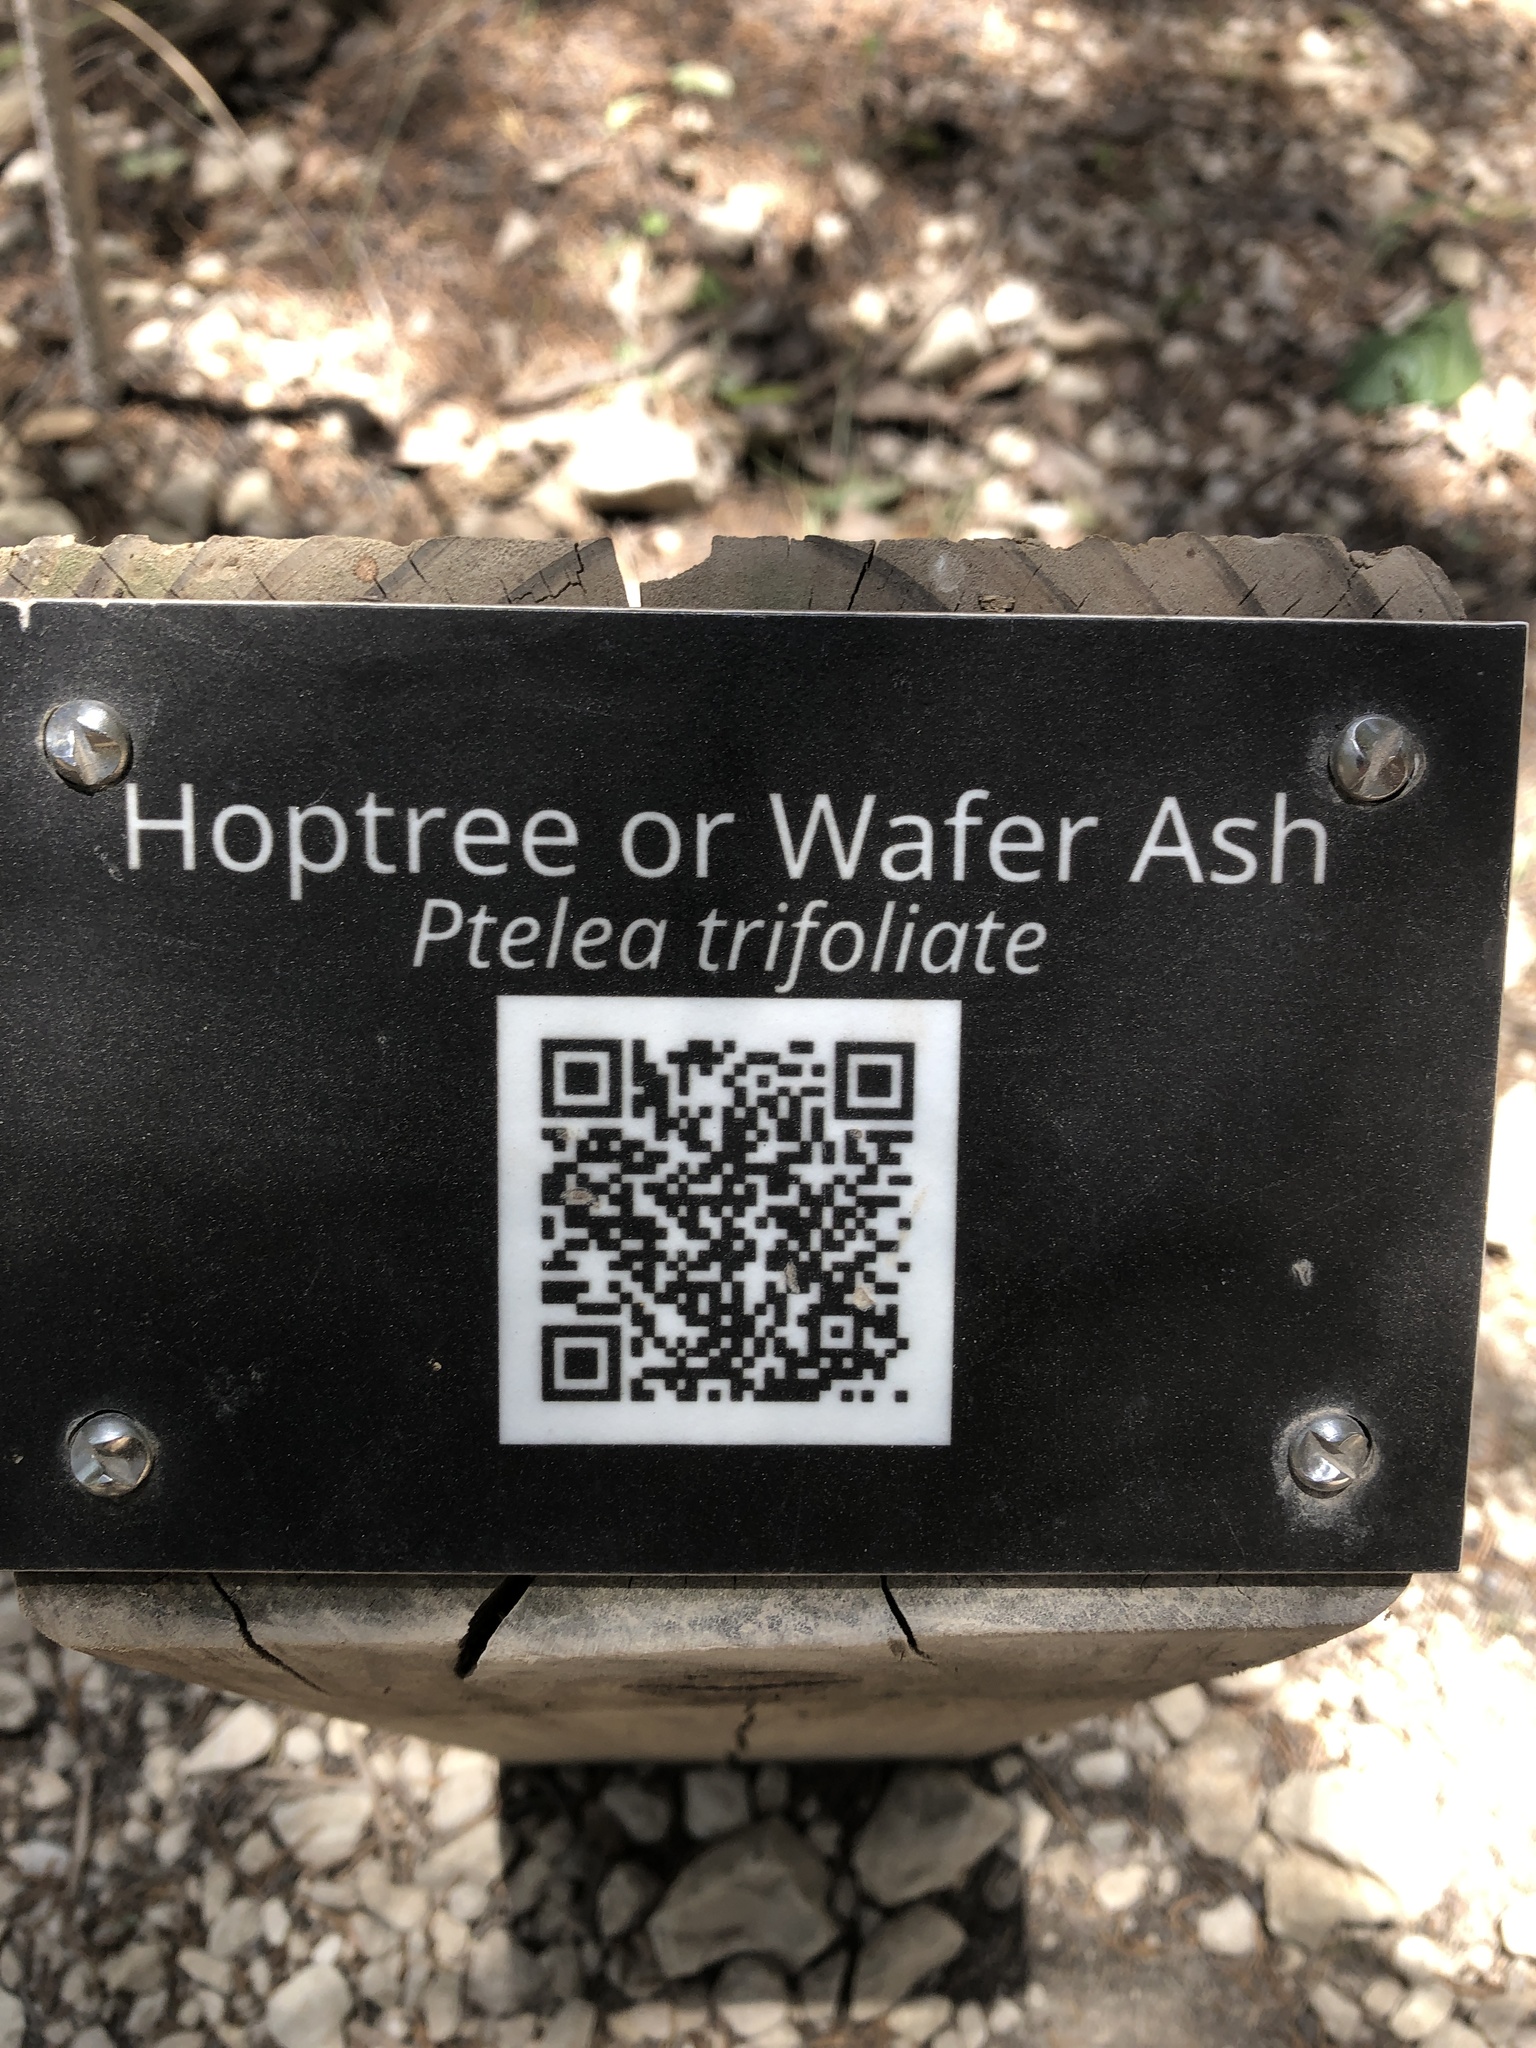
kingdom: Plantae
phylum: Tracheophyta
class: Magnoliopsida
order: Sapindales
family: Rutaceae
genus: Ptelea
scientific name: Ptelea trifoliata
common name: Common hop-tree
